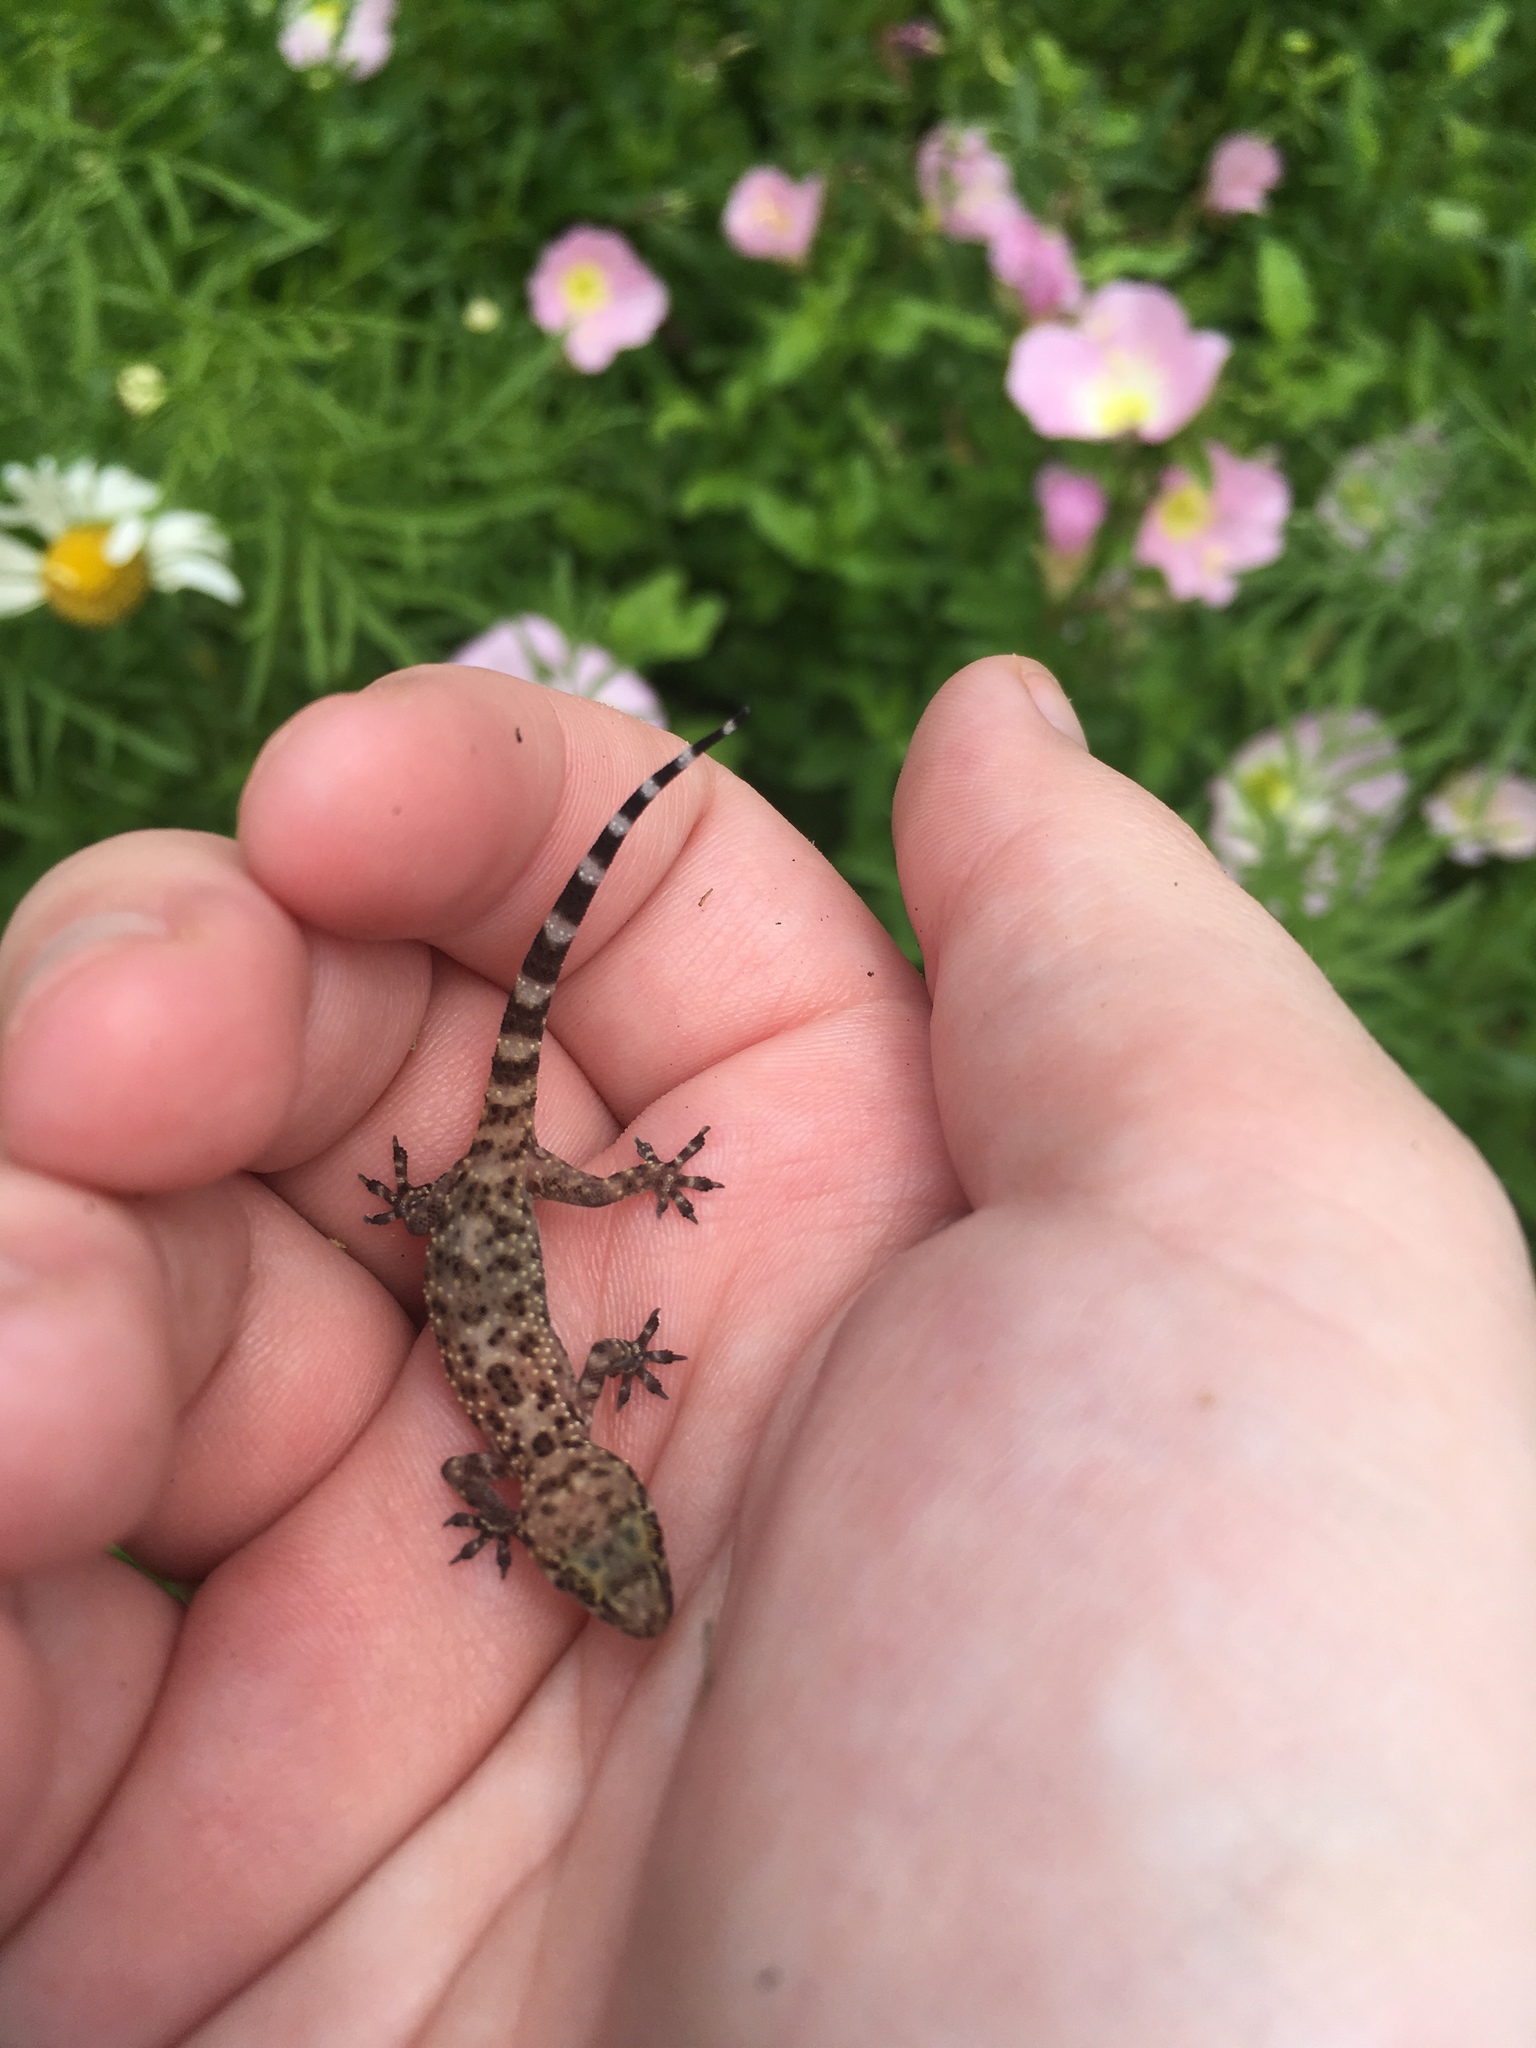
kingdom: Animalia
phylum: Chordata
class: Squamata
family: Gekkonidae
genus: Hemidactylus
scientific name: Hemidactylus turcicus
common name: Turkish gecko
